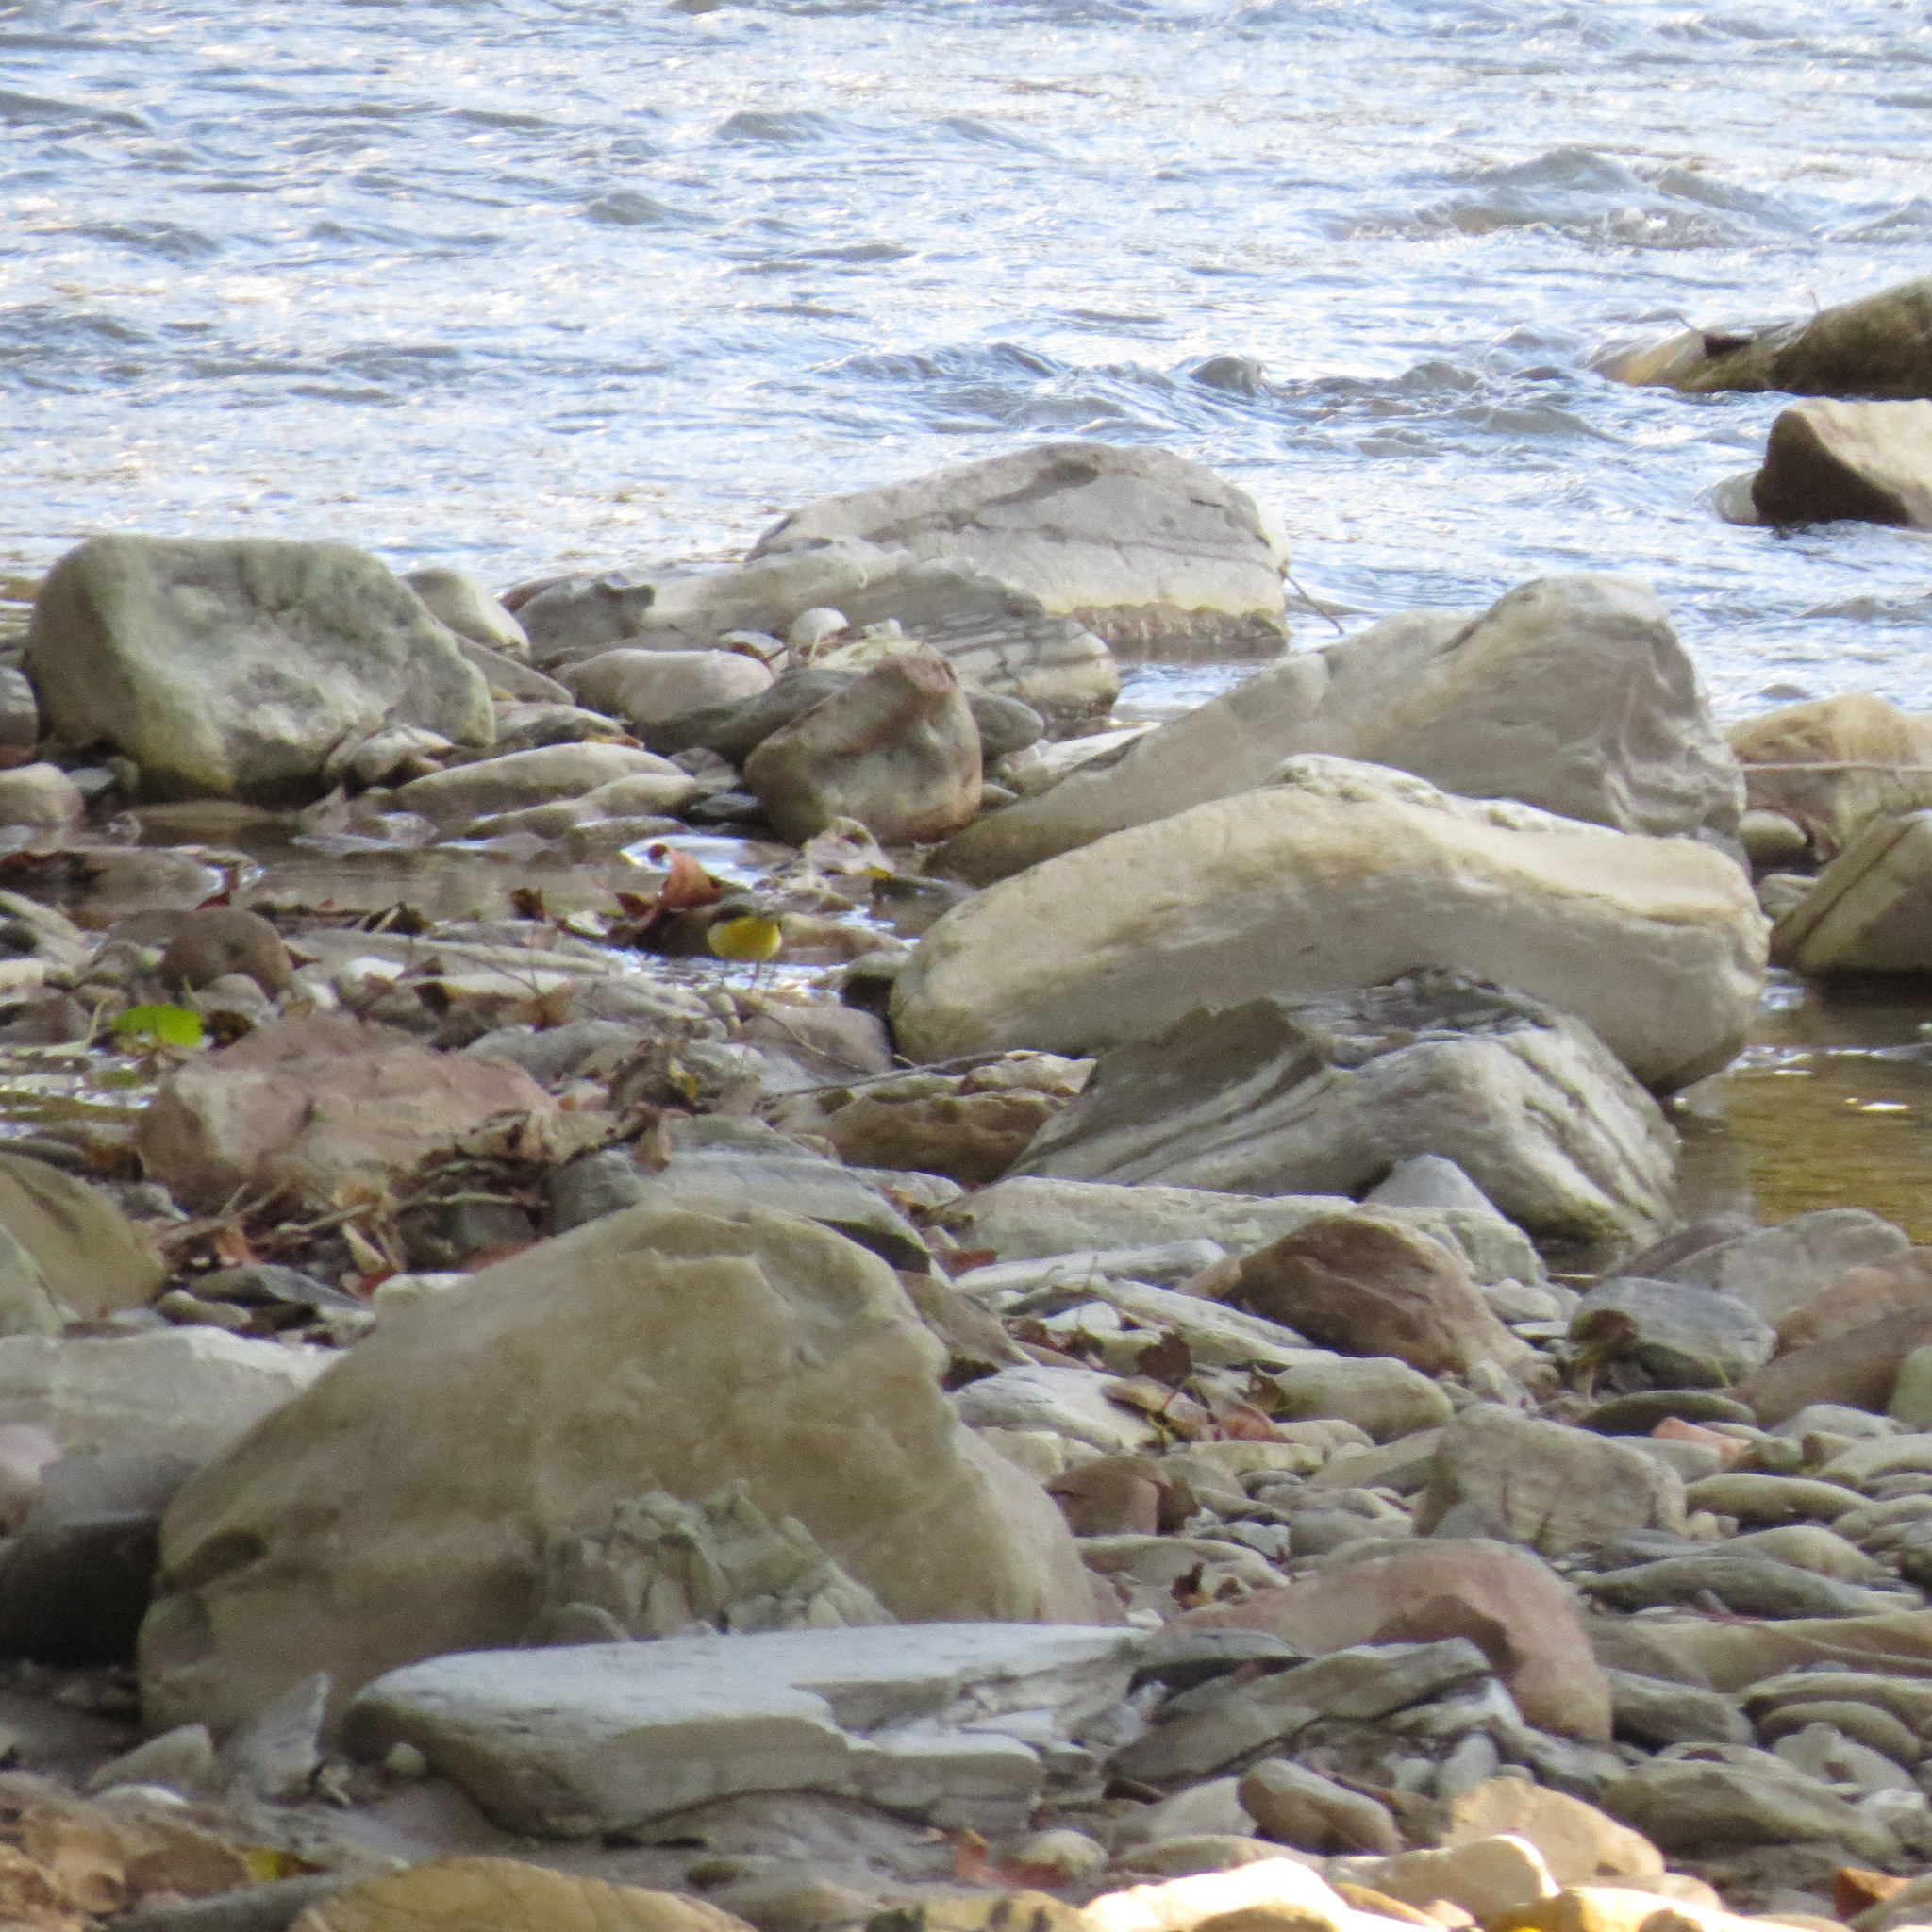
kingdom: Animalia
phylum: Chordata
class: Aves
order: Passeriformes
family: Motacillidae
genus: Motacilla
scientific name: Motacilla cinerea
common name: Grey wagtail
